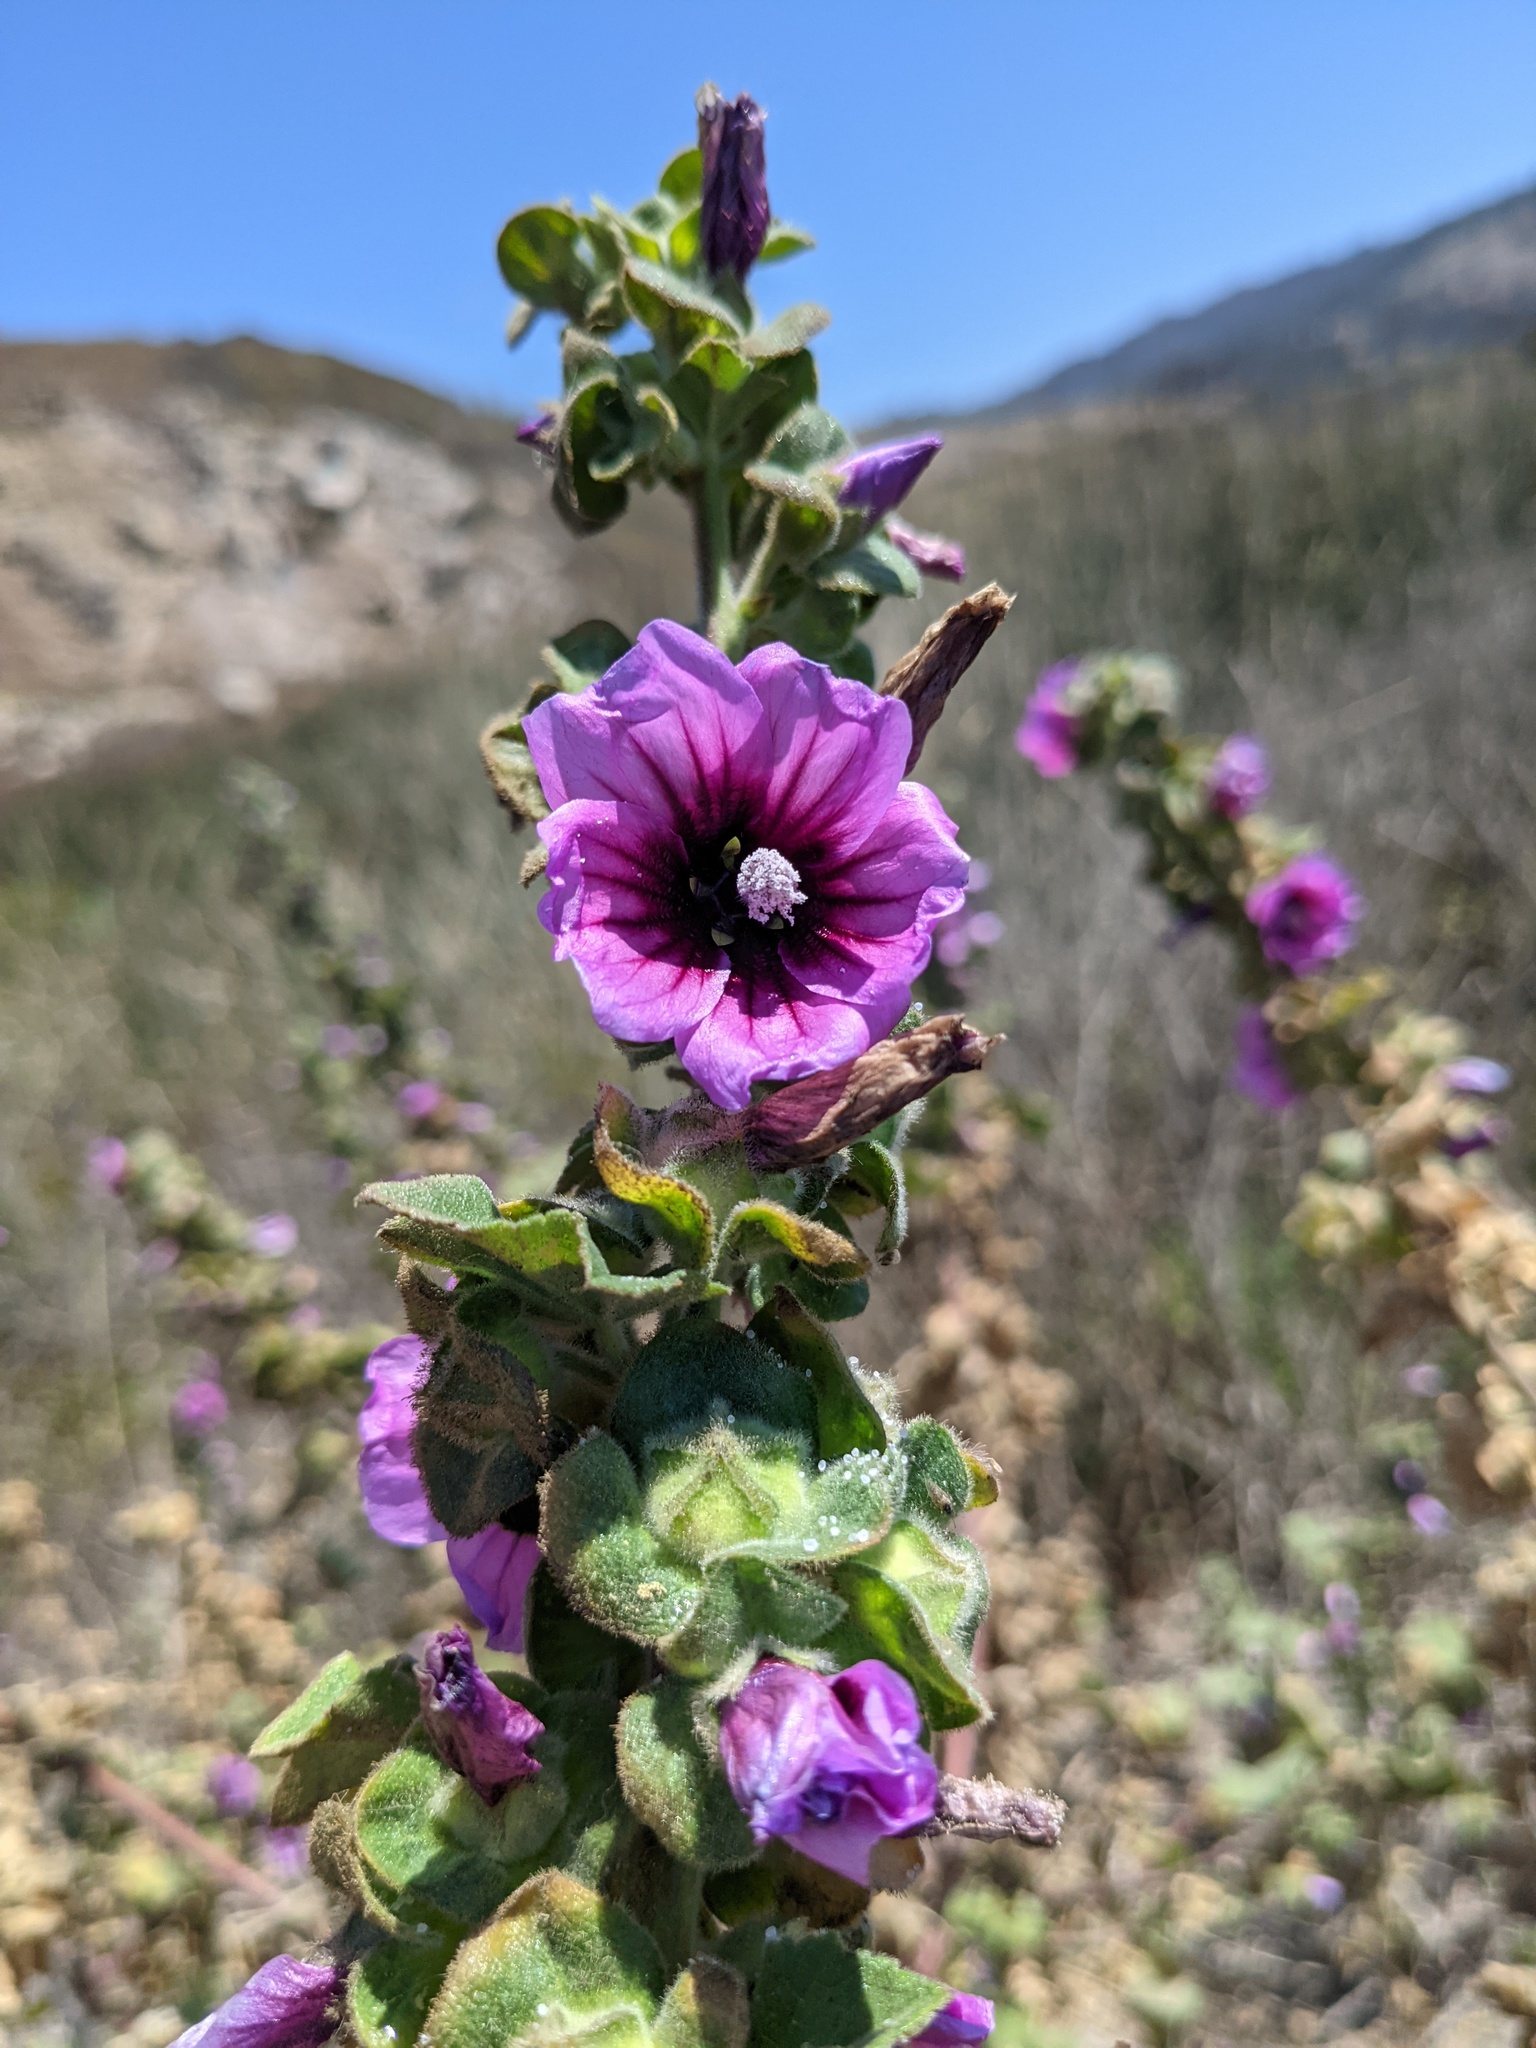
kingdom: Plantae
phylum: Tracheophyta
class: Magnoliopsida
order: Malvales
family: Malvaceae
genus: Malva
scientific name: Malva arborea
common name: Tree mallow
